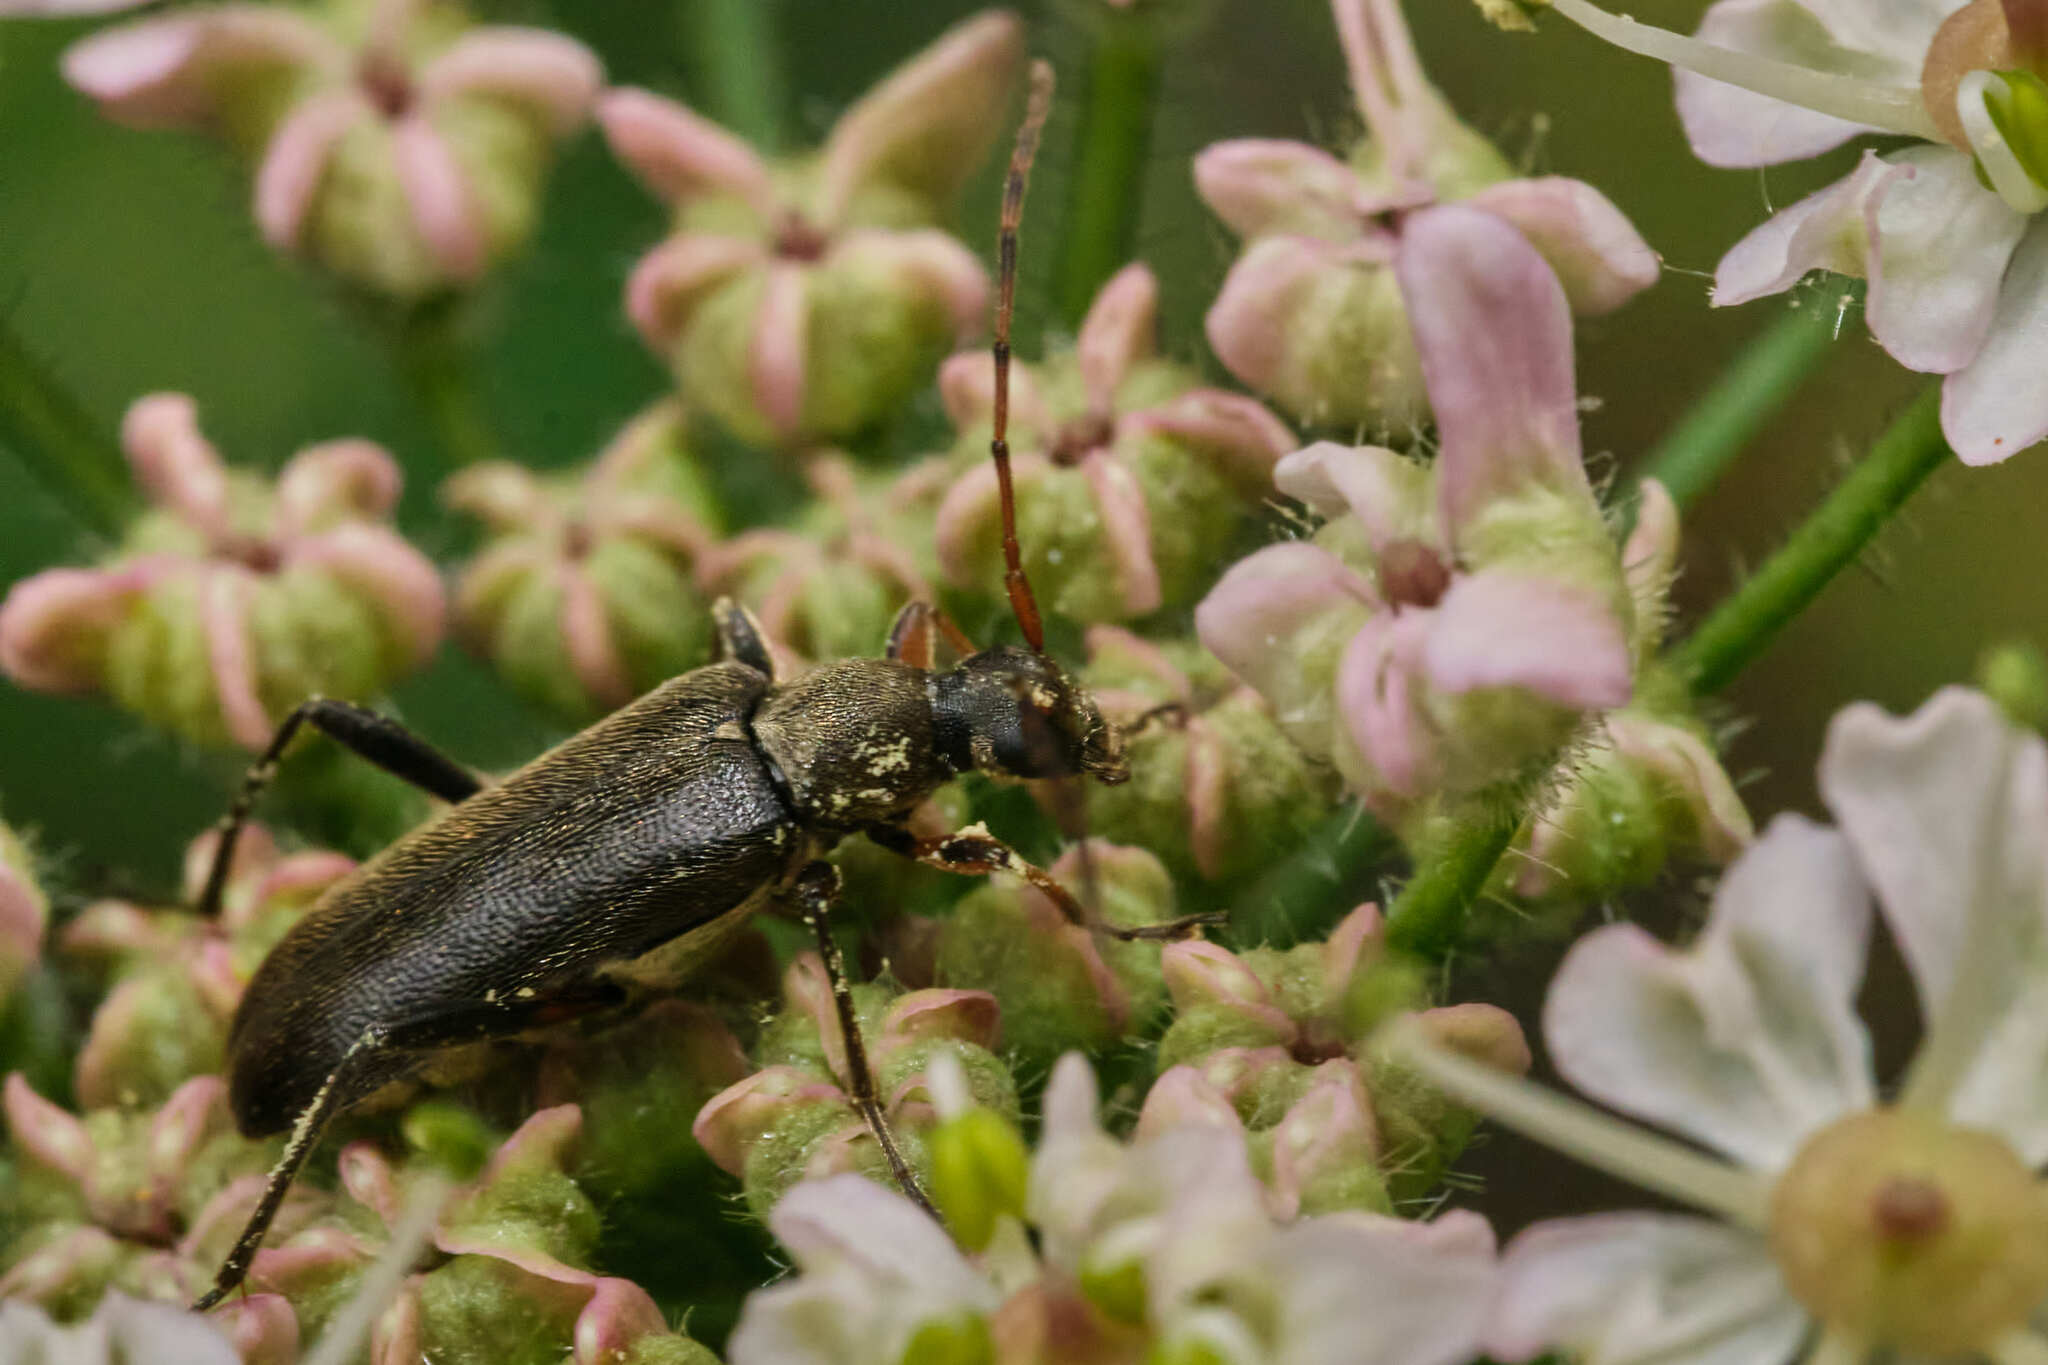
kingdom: Animalia
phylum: Arthropoda
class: Insecta
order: Coleoptera
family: Cerambycidae
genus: Grammoptera
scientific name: Grammoptera ruficornis
